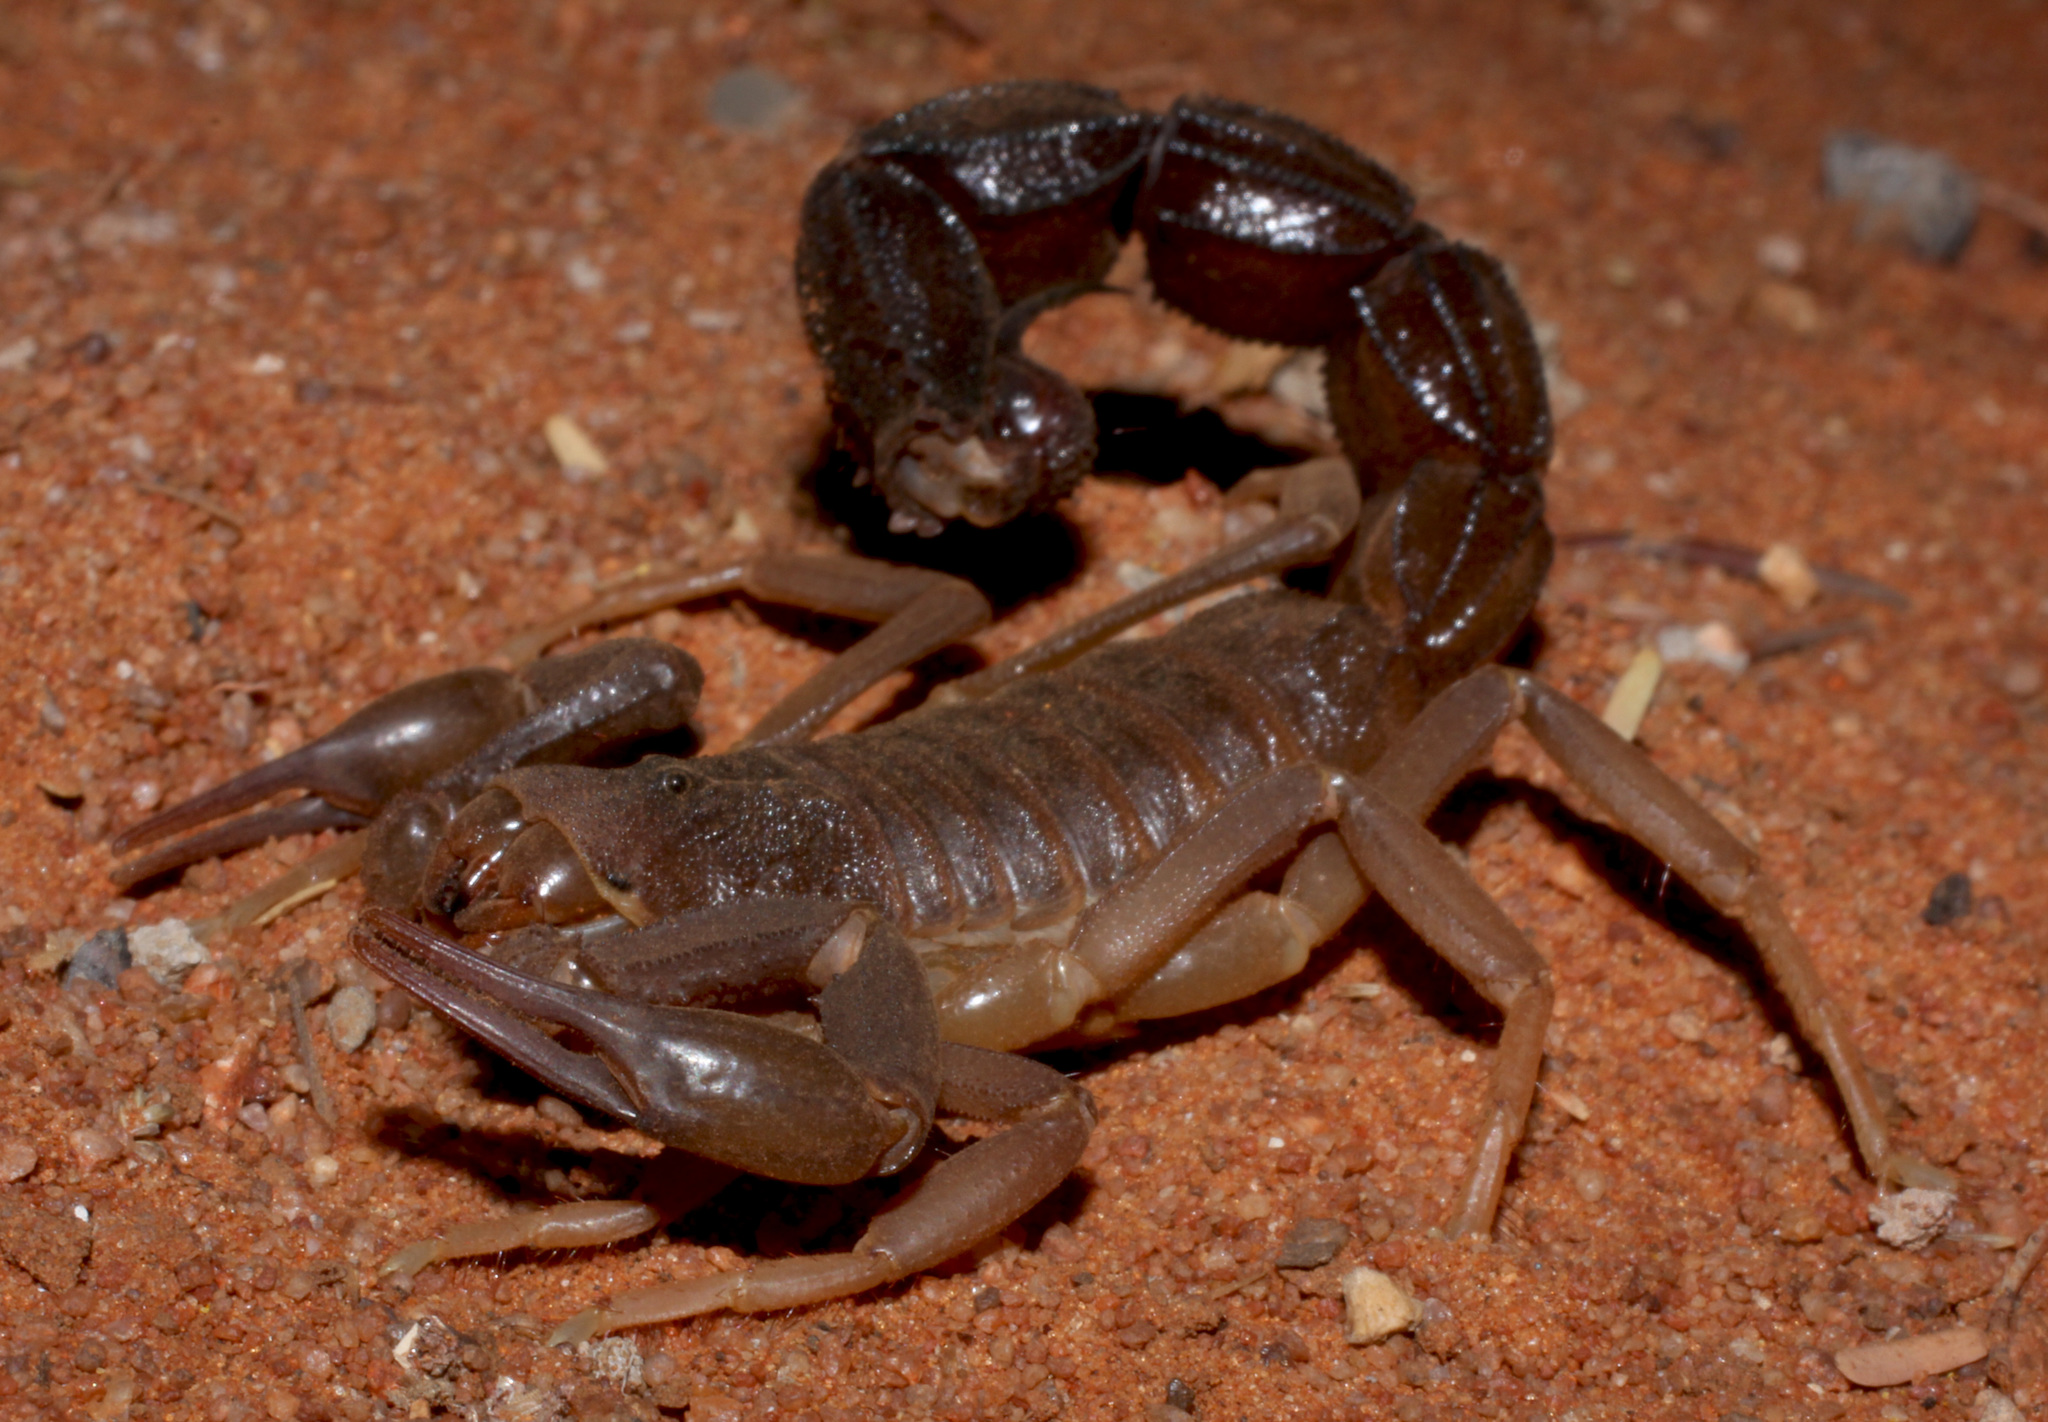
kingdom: Animalia
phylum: Arthropoda
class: Arachnida
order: Scorpiones
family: Buthidae
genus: Parabuthus
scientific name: Parabuthus granulatus
